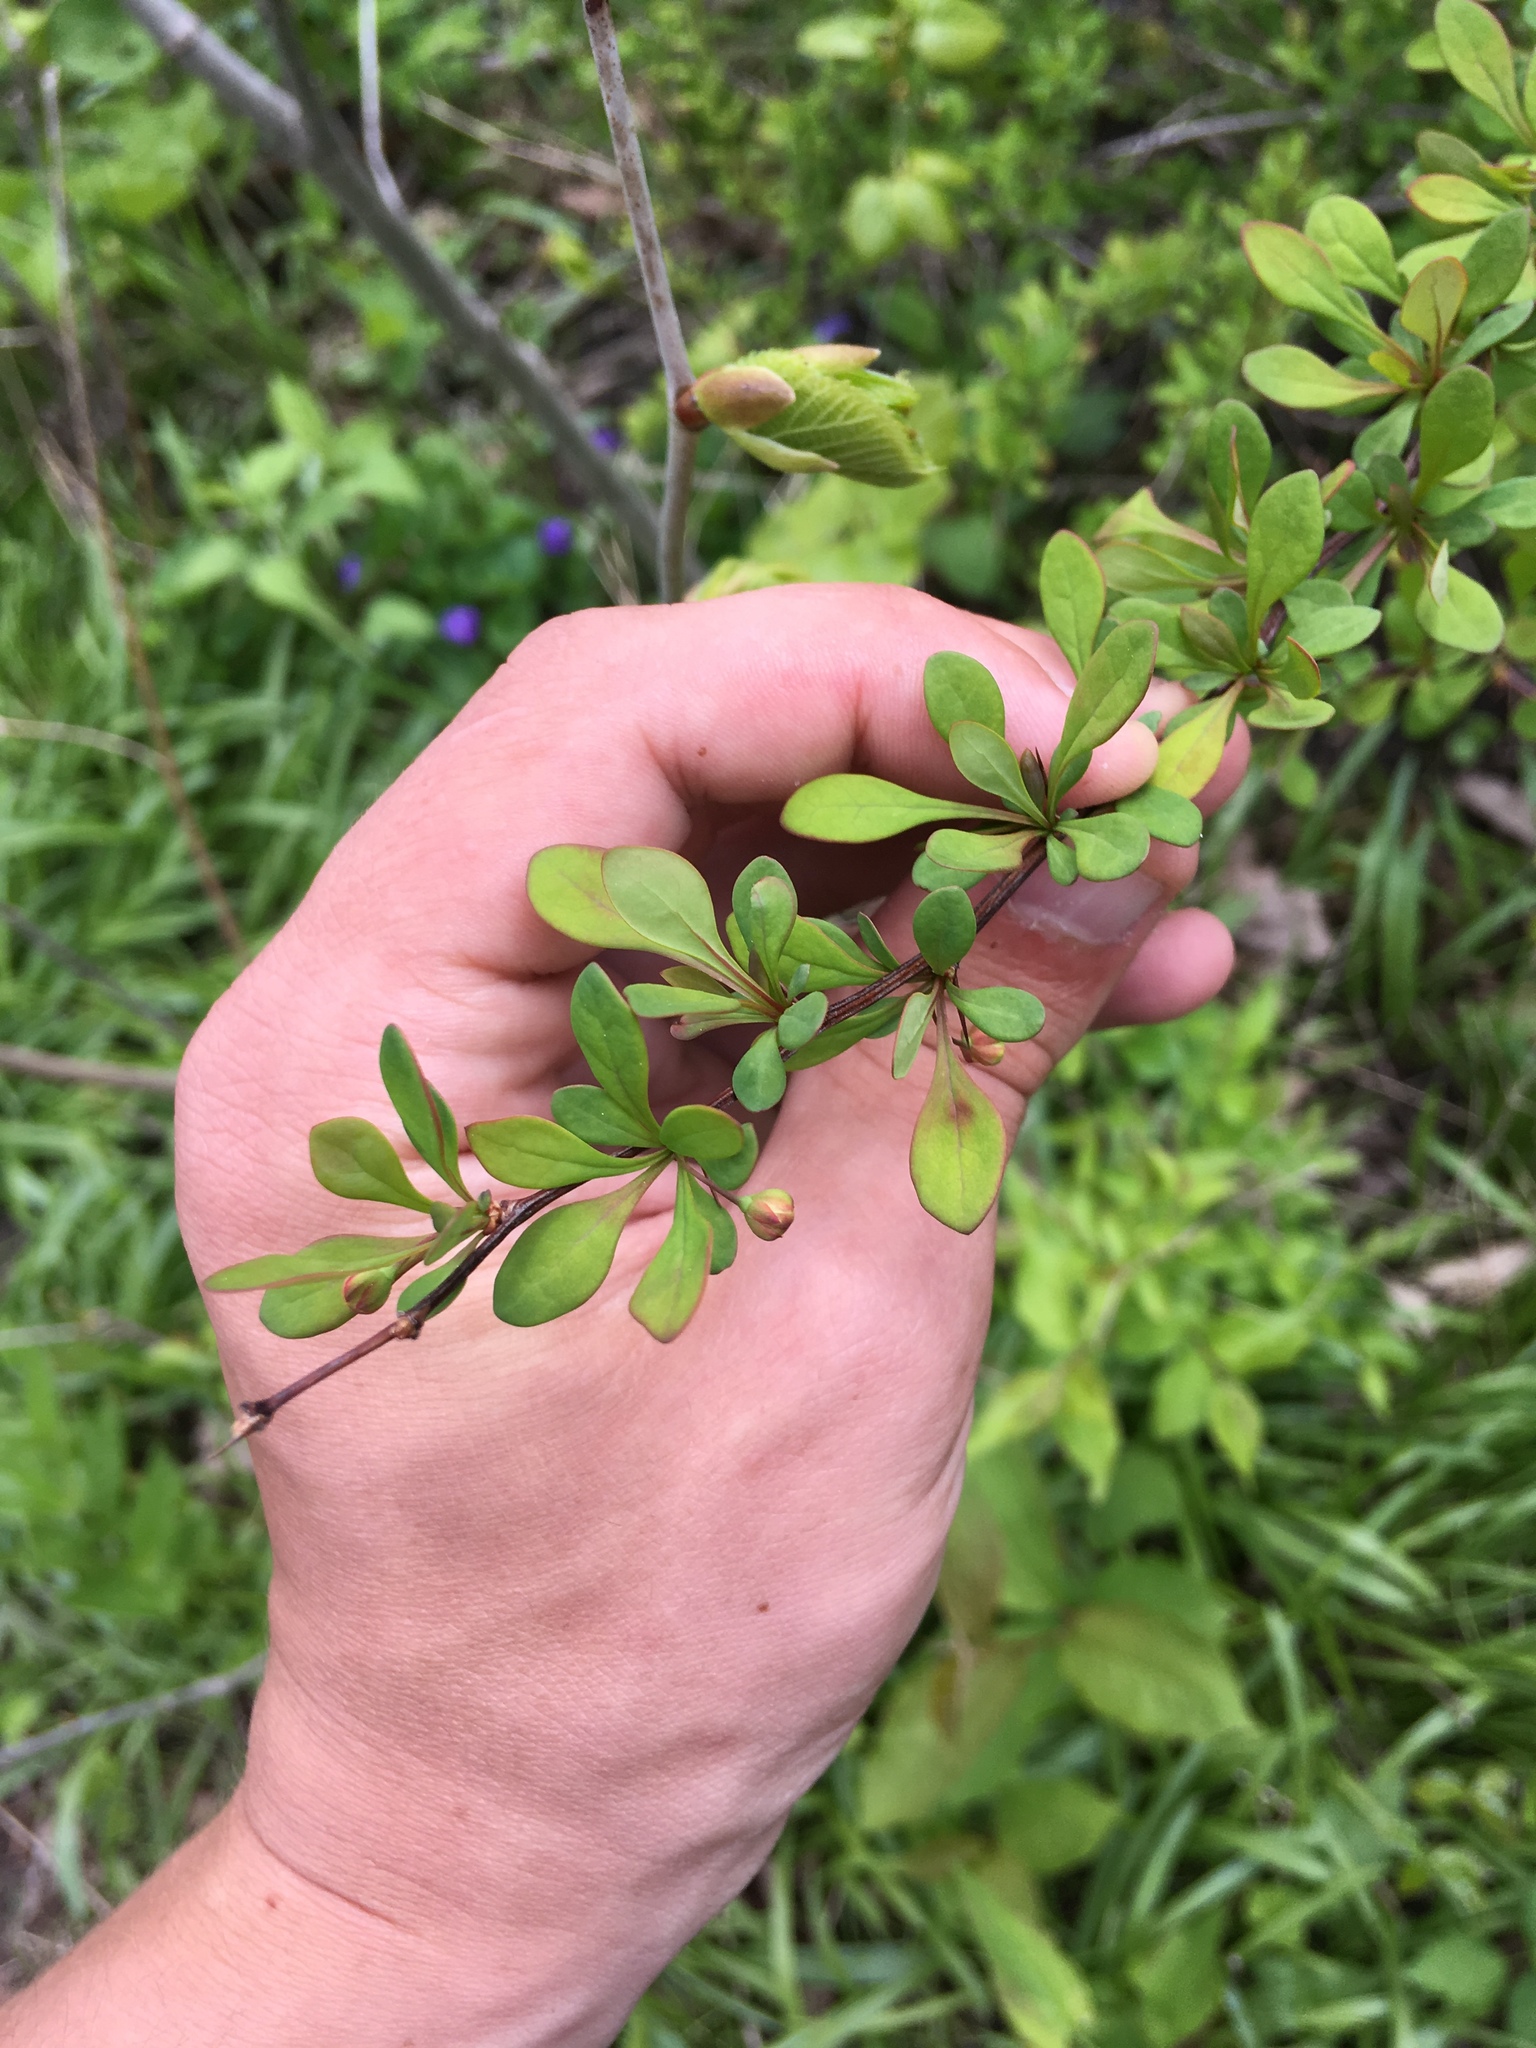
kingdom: Plantae
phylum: Tracheophyta
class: Magnoliopsida
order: Ranunculales
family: Berberidaceae
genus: Berberis
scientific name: Berberis thunbergii
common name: Japanese barberry
